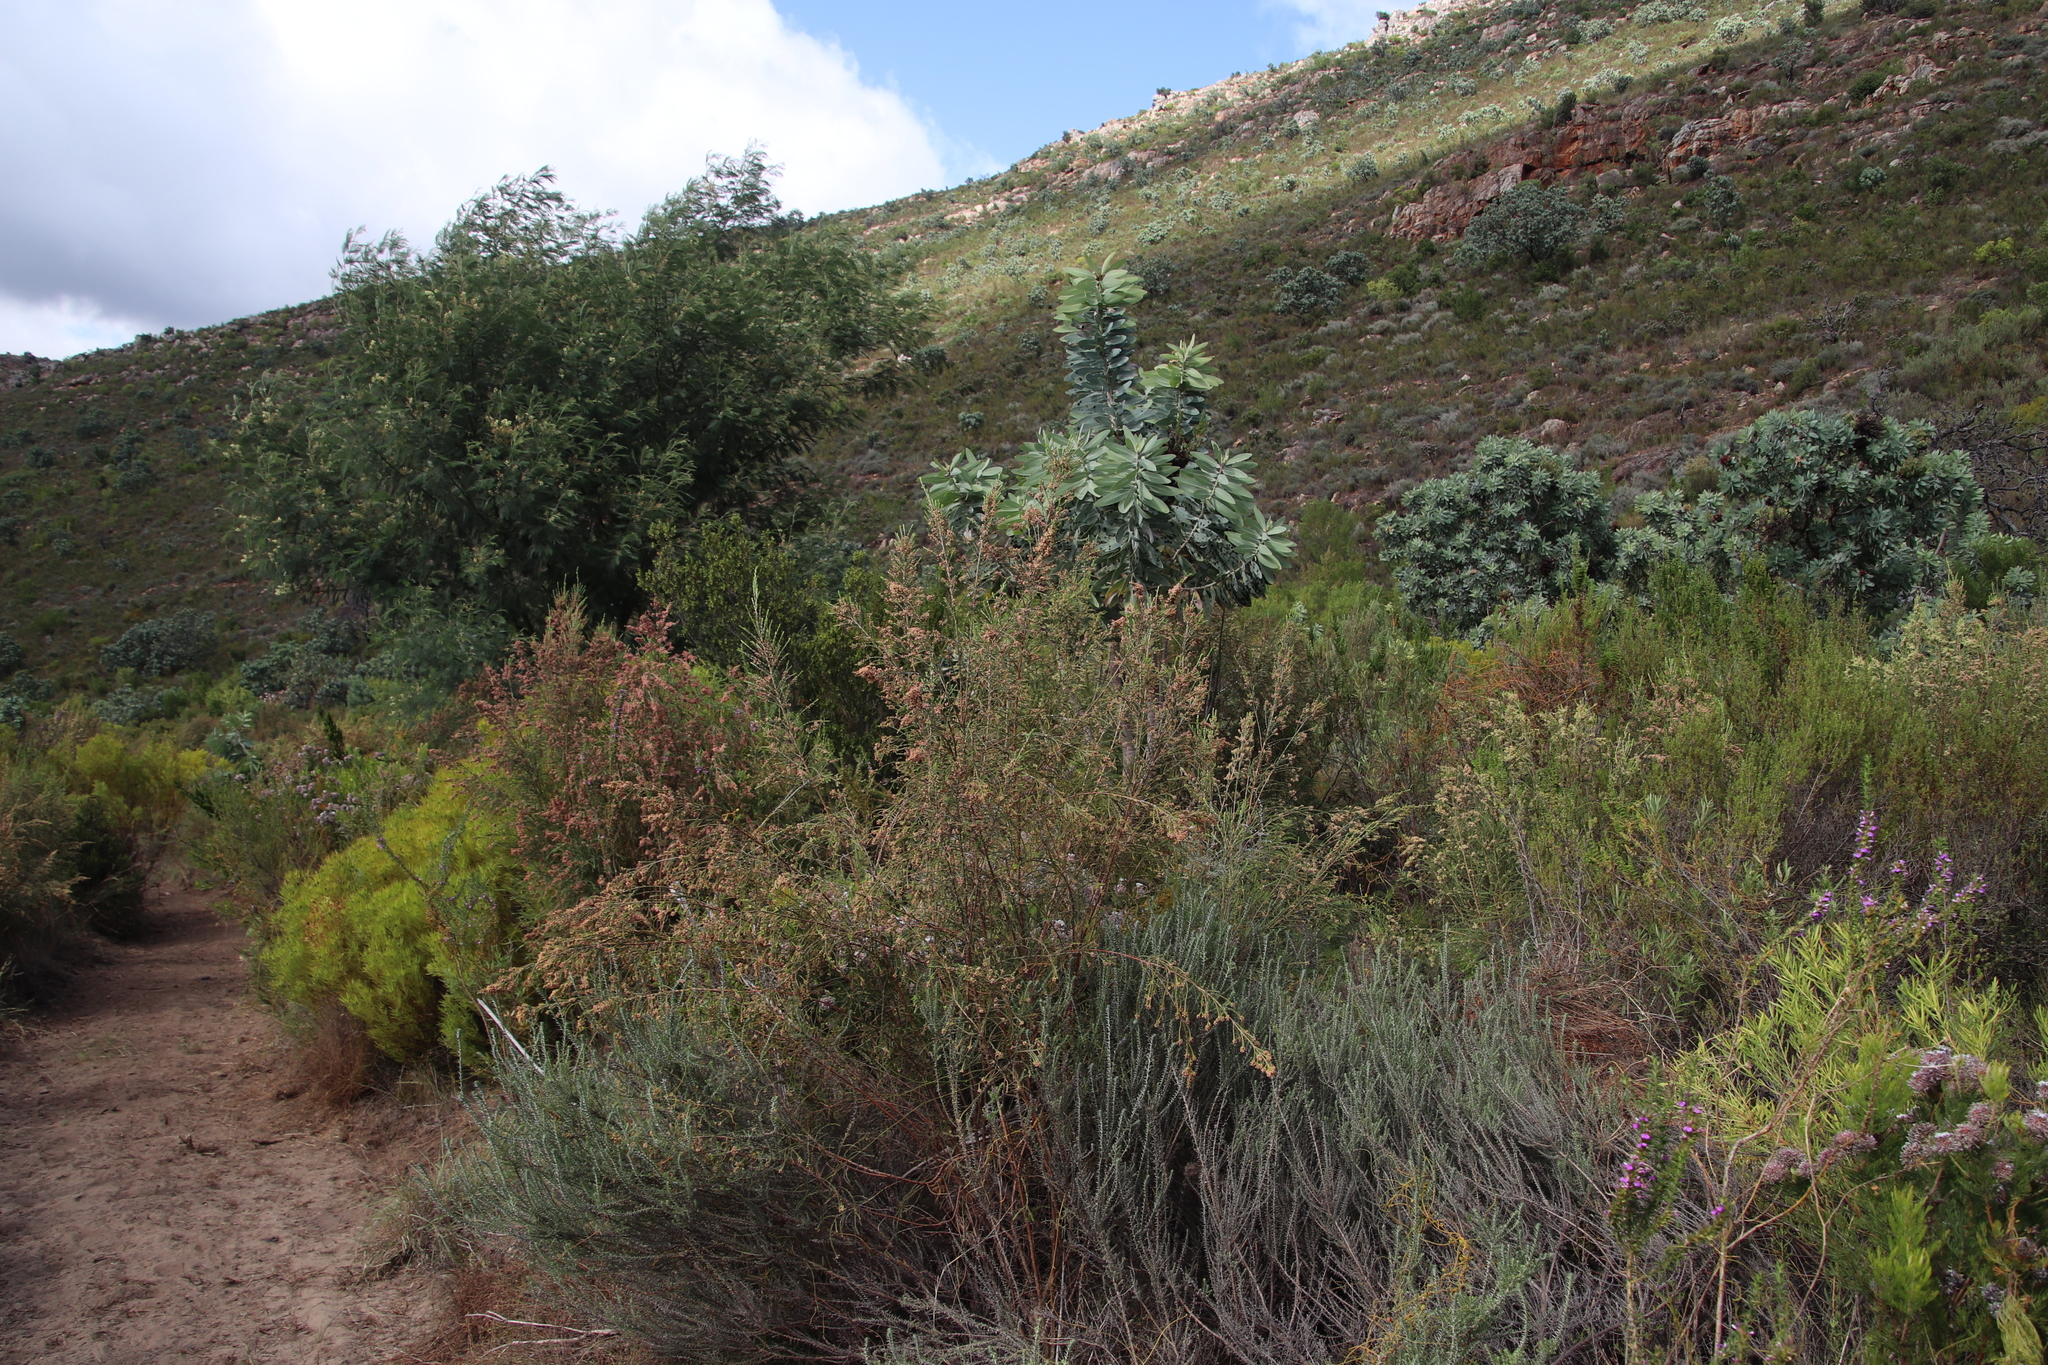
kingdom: Plantae
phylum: Tracheophyta
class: Magnoliopsida
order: Malvales
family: Thymelaeaceae
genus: Passerina
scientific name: Passerina corymbosa
